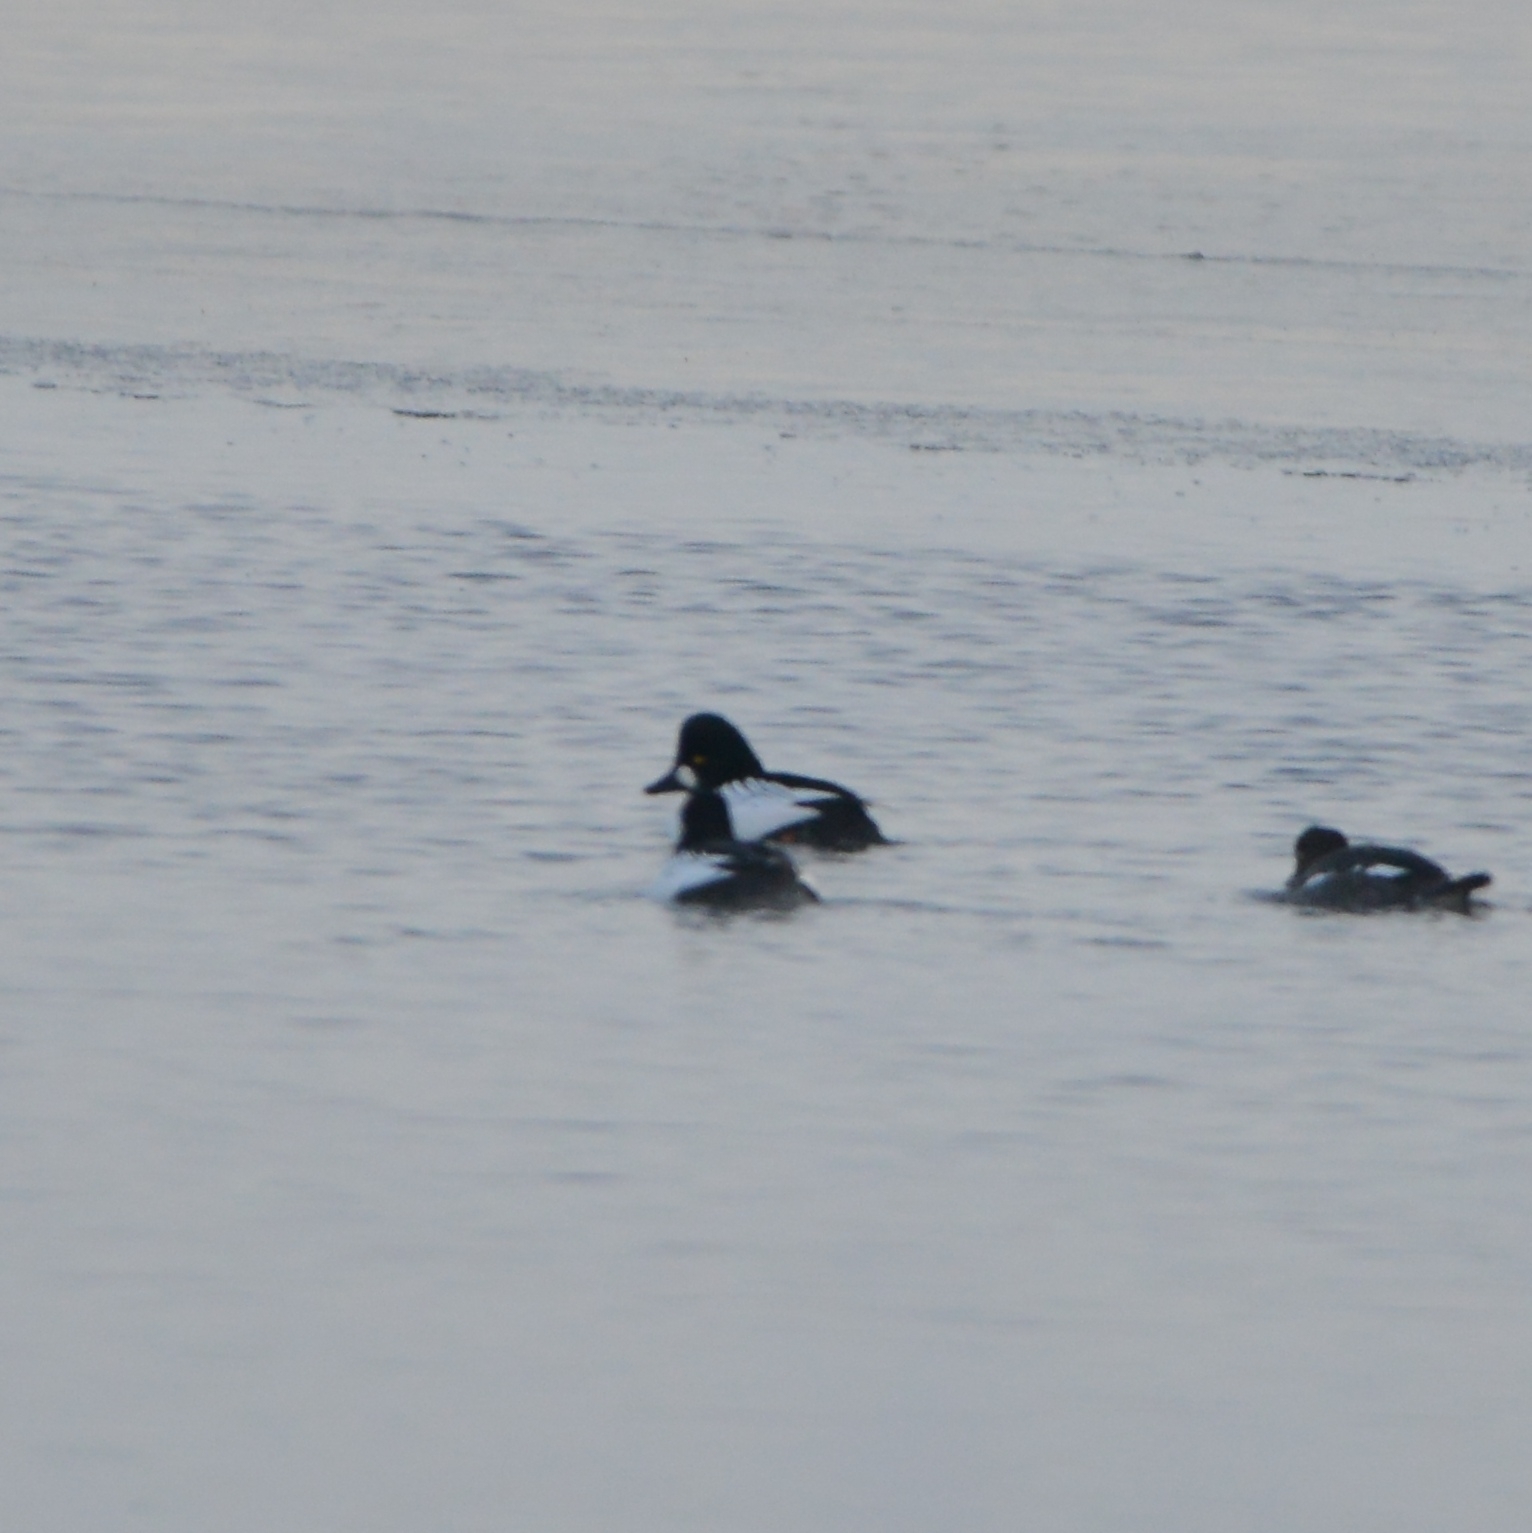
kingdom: Animalia
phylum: Chordata
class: Aves
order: Anseriformes
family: Anatidae
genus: Bucephala
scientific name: Bucephala clangula
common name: Common goldeneye
